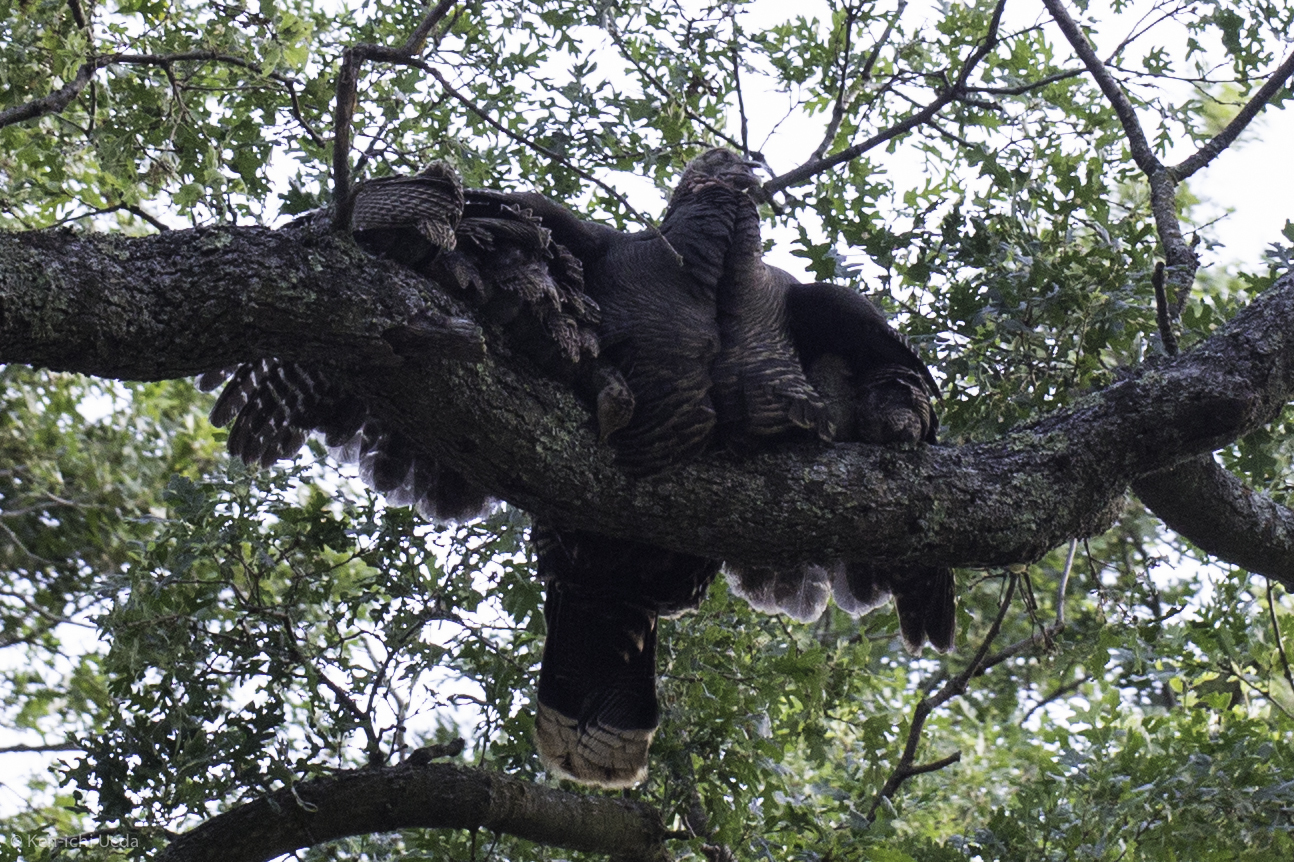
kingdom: Animalia
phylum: Chordata
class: Aves
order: Galliformes
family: Phasianidae
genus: Meleagris
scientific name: Meleagris gallopavo
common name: Wild turkey
